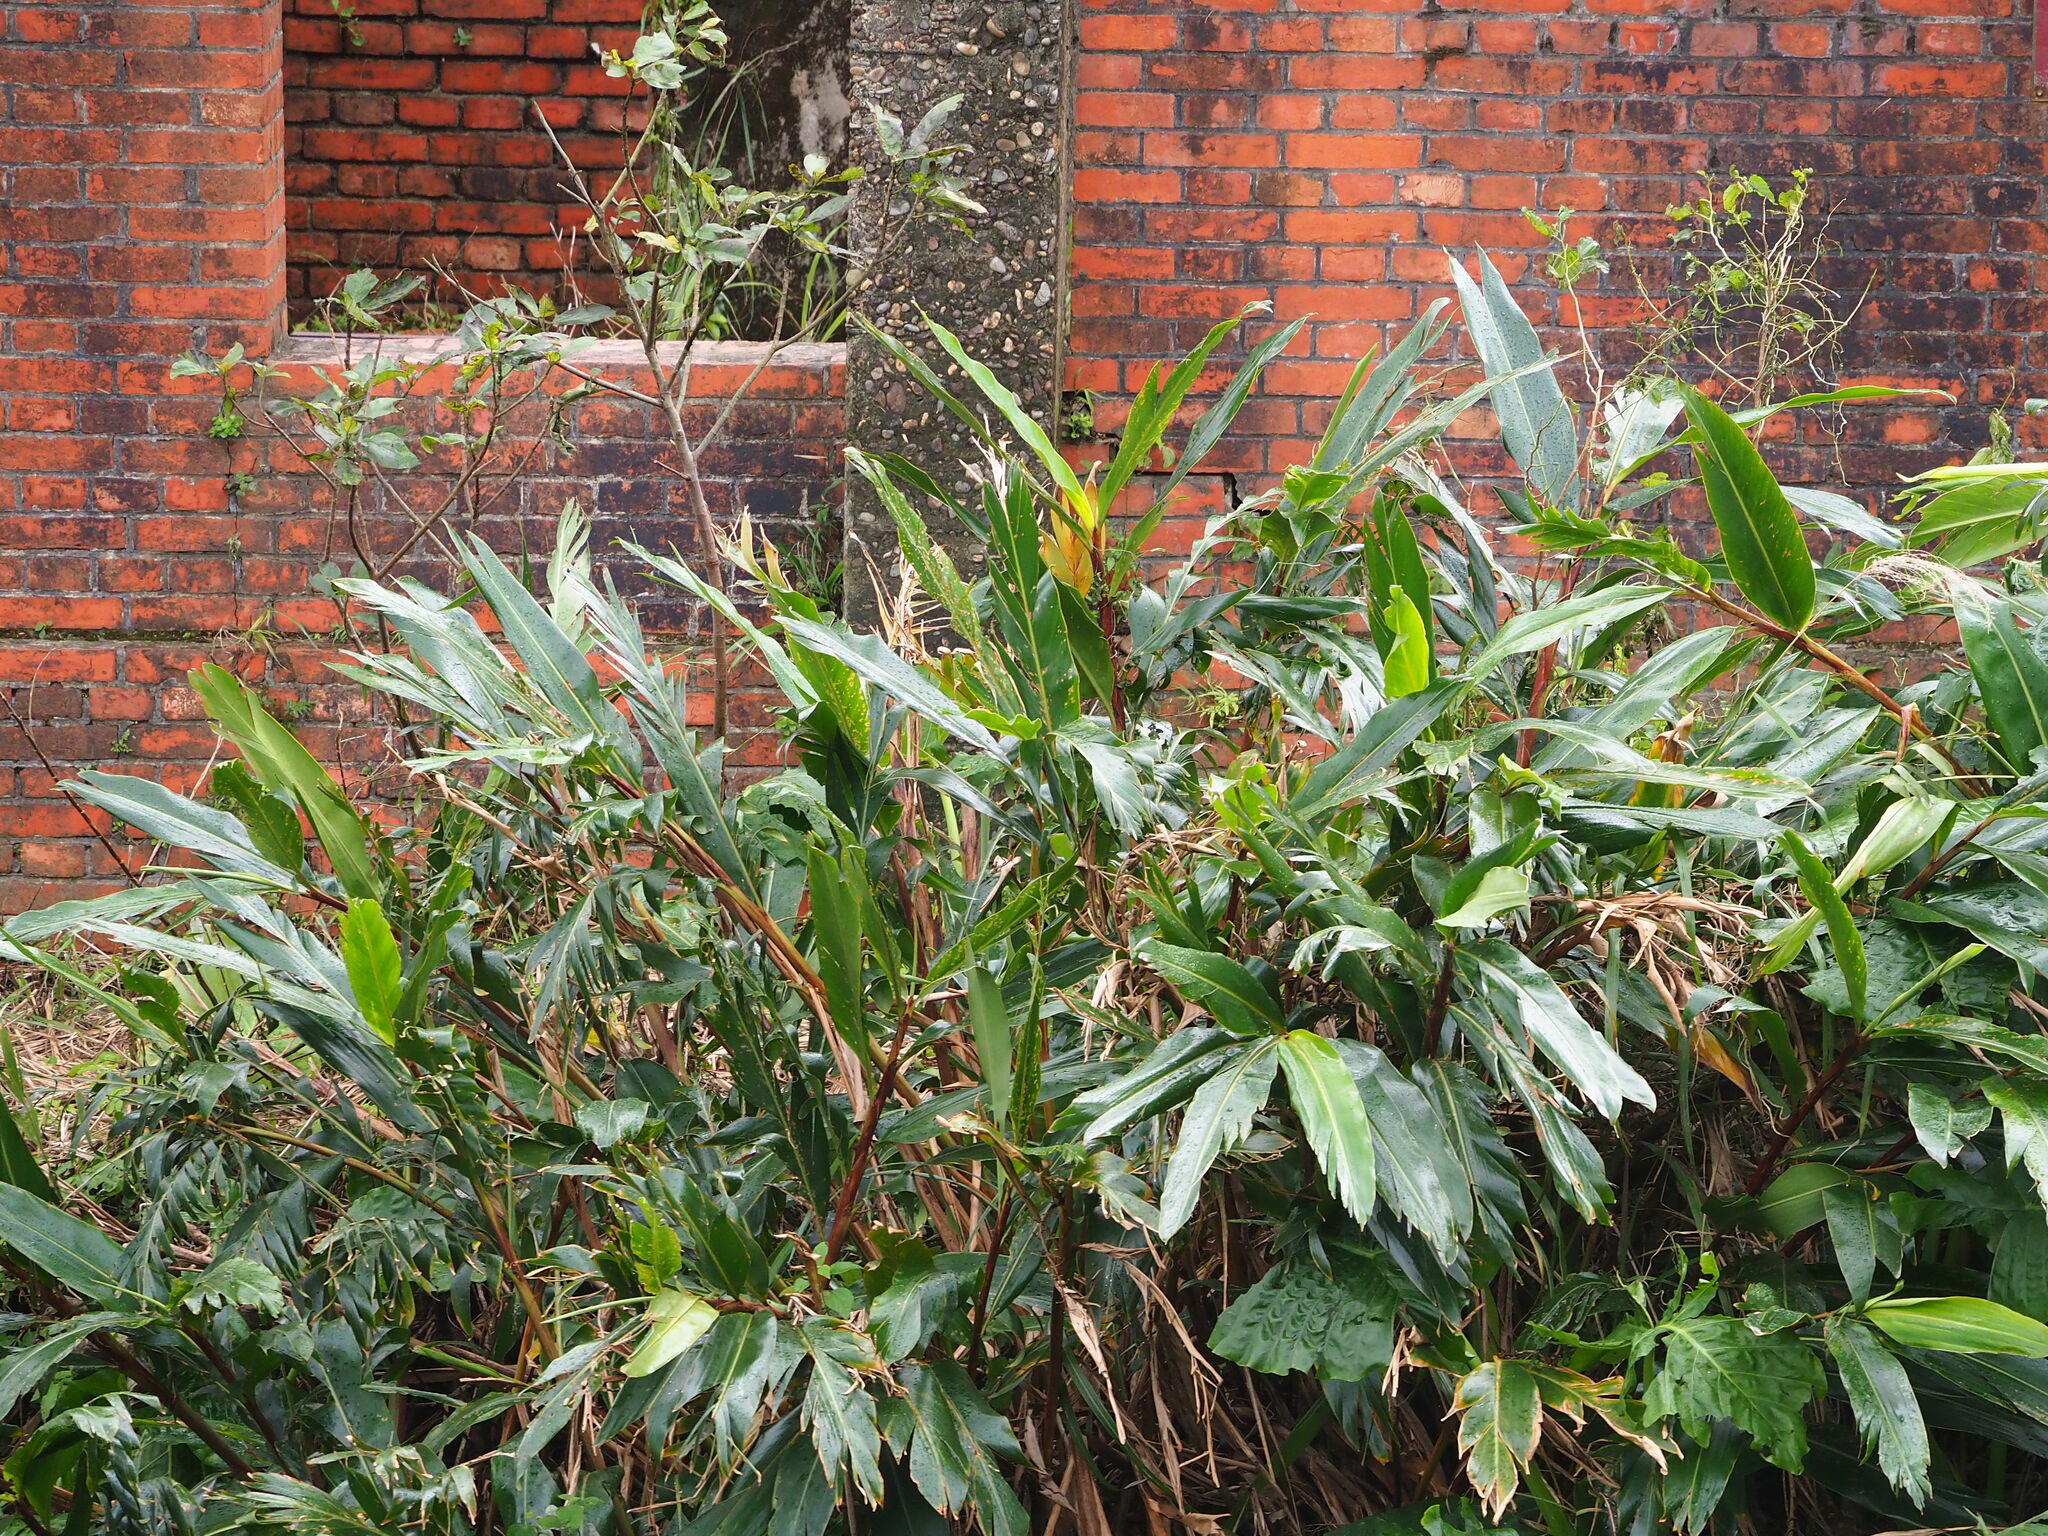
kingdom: Plantae
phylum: Tracheophyta
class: Liliopsida
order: Zingiberales
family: Zingiberaceae
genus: Alpinia
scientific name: Alpinia zerumbet
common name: Shellplant
